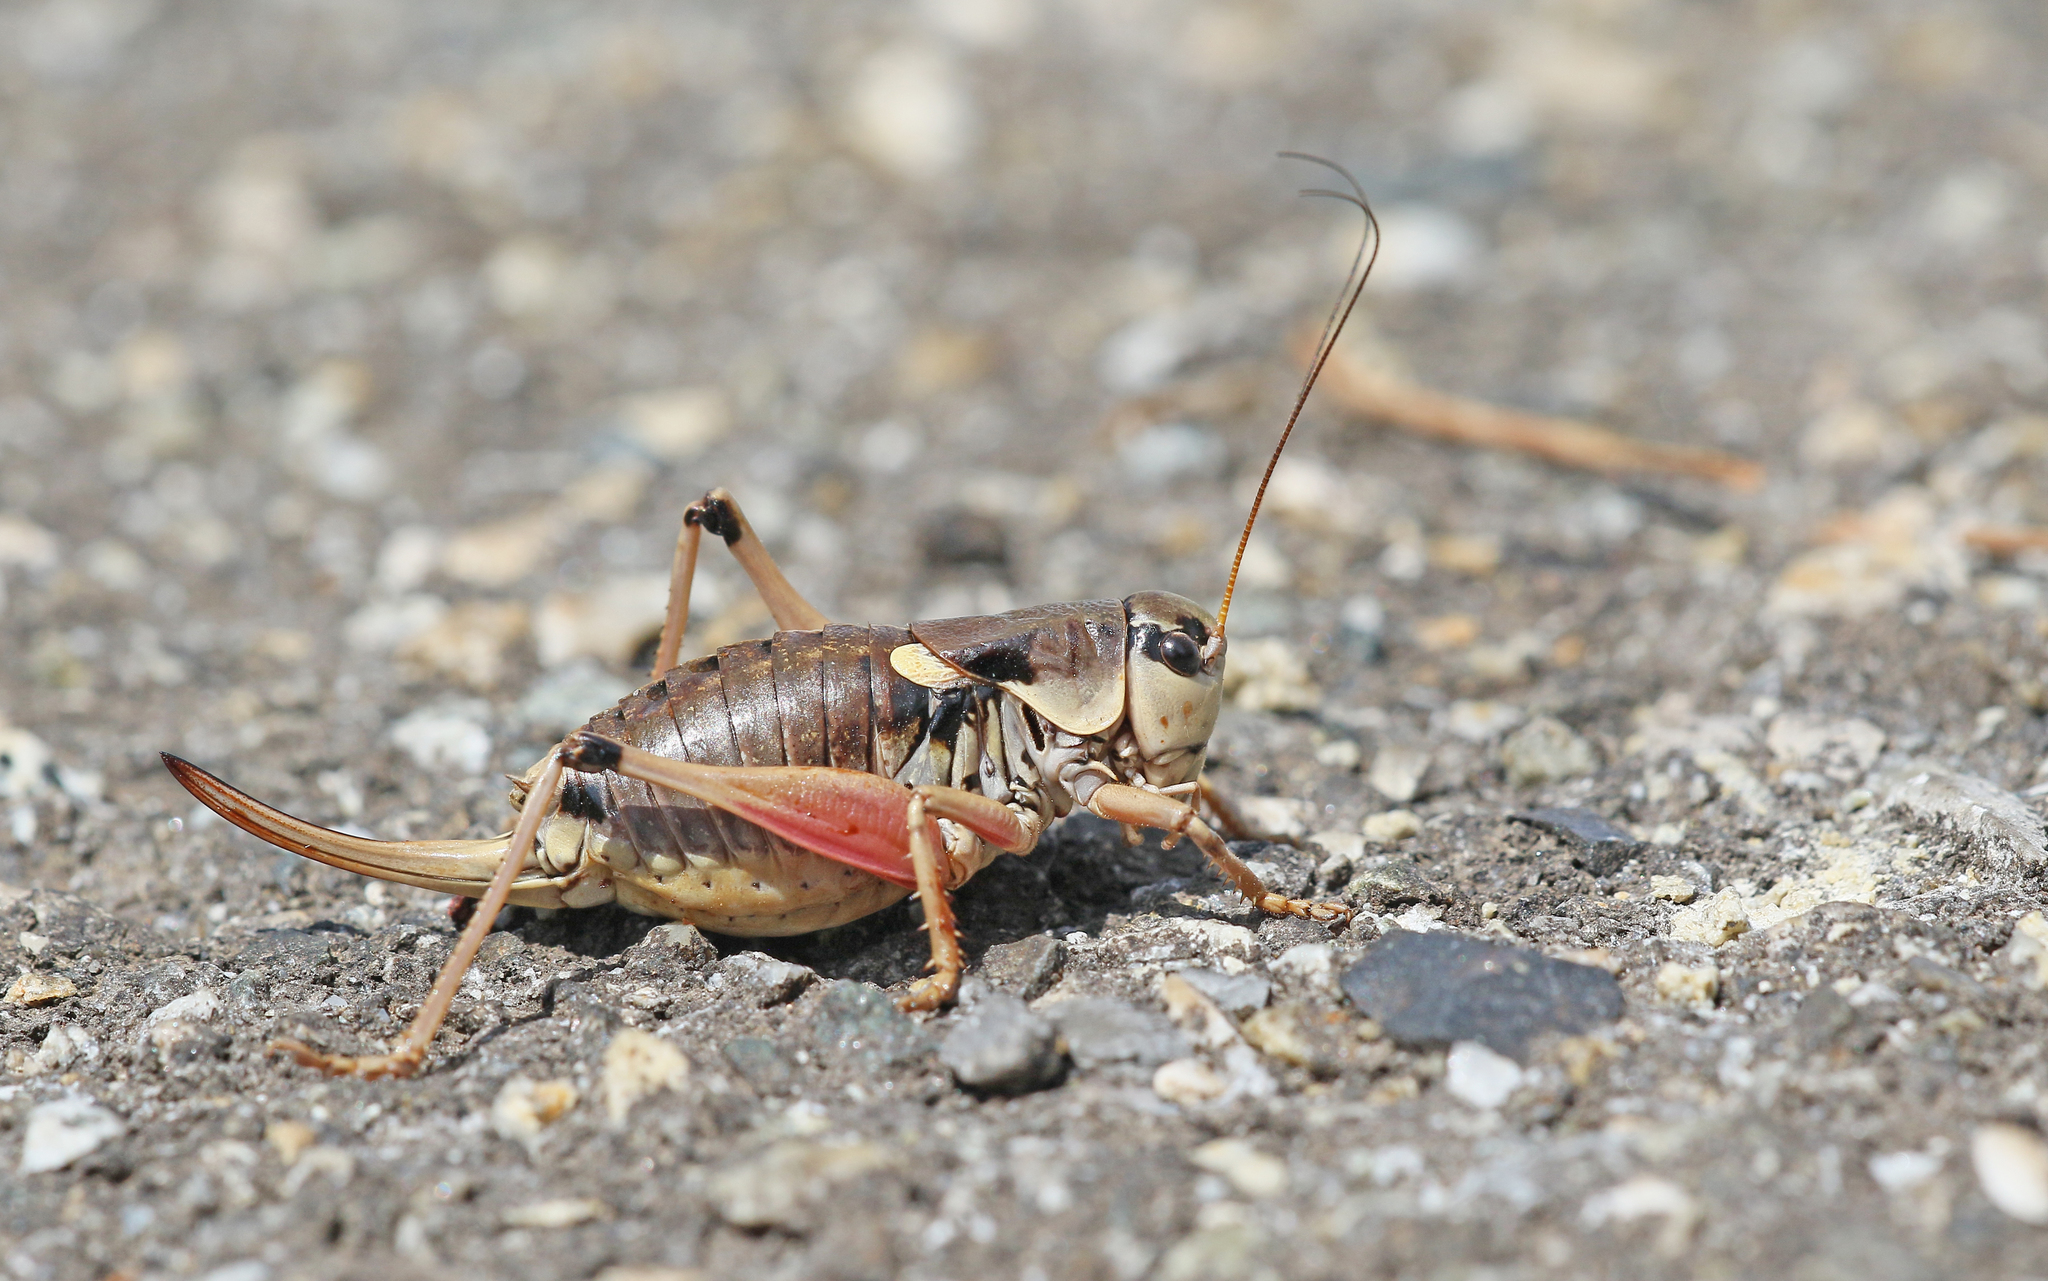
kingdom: Animalia
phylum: Arthropoda
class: Insecta
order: Orthoptera
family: Tettigoniidae
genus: Anonconotus
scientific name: Anonconotus ghilianii
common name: Ghiliani's alpine bush-cricket
